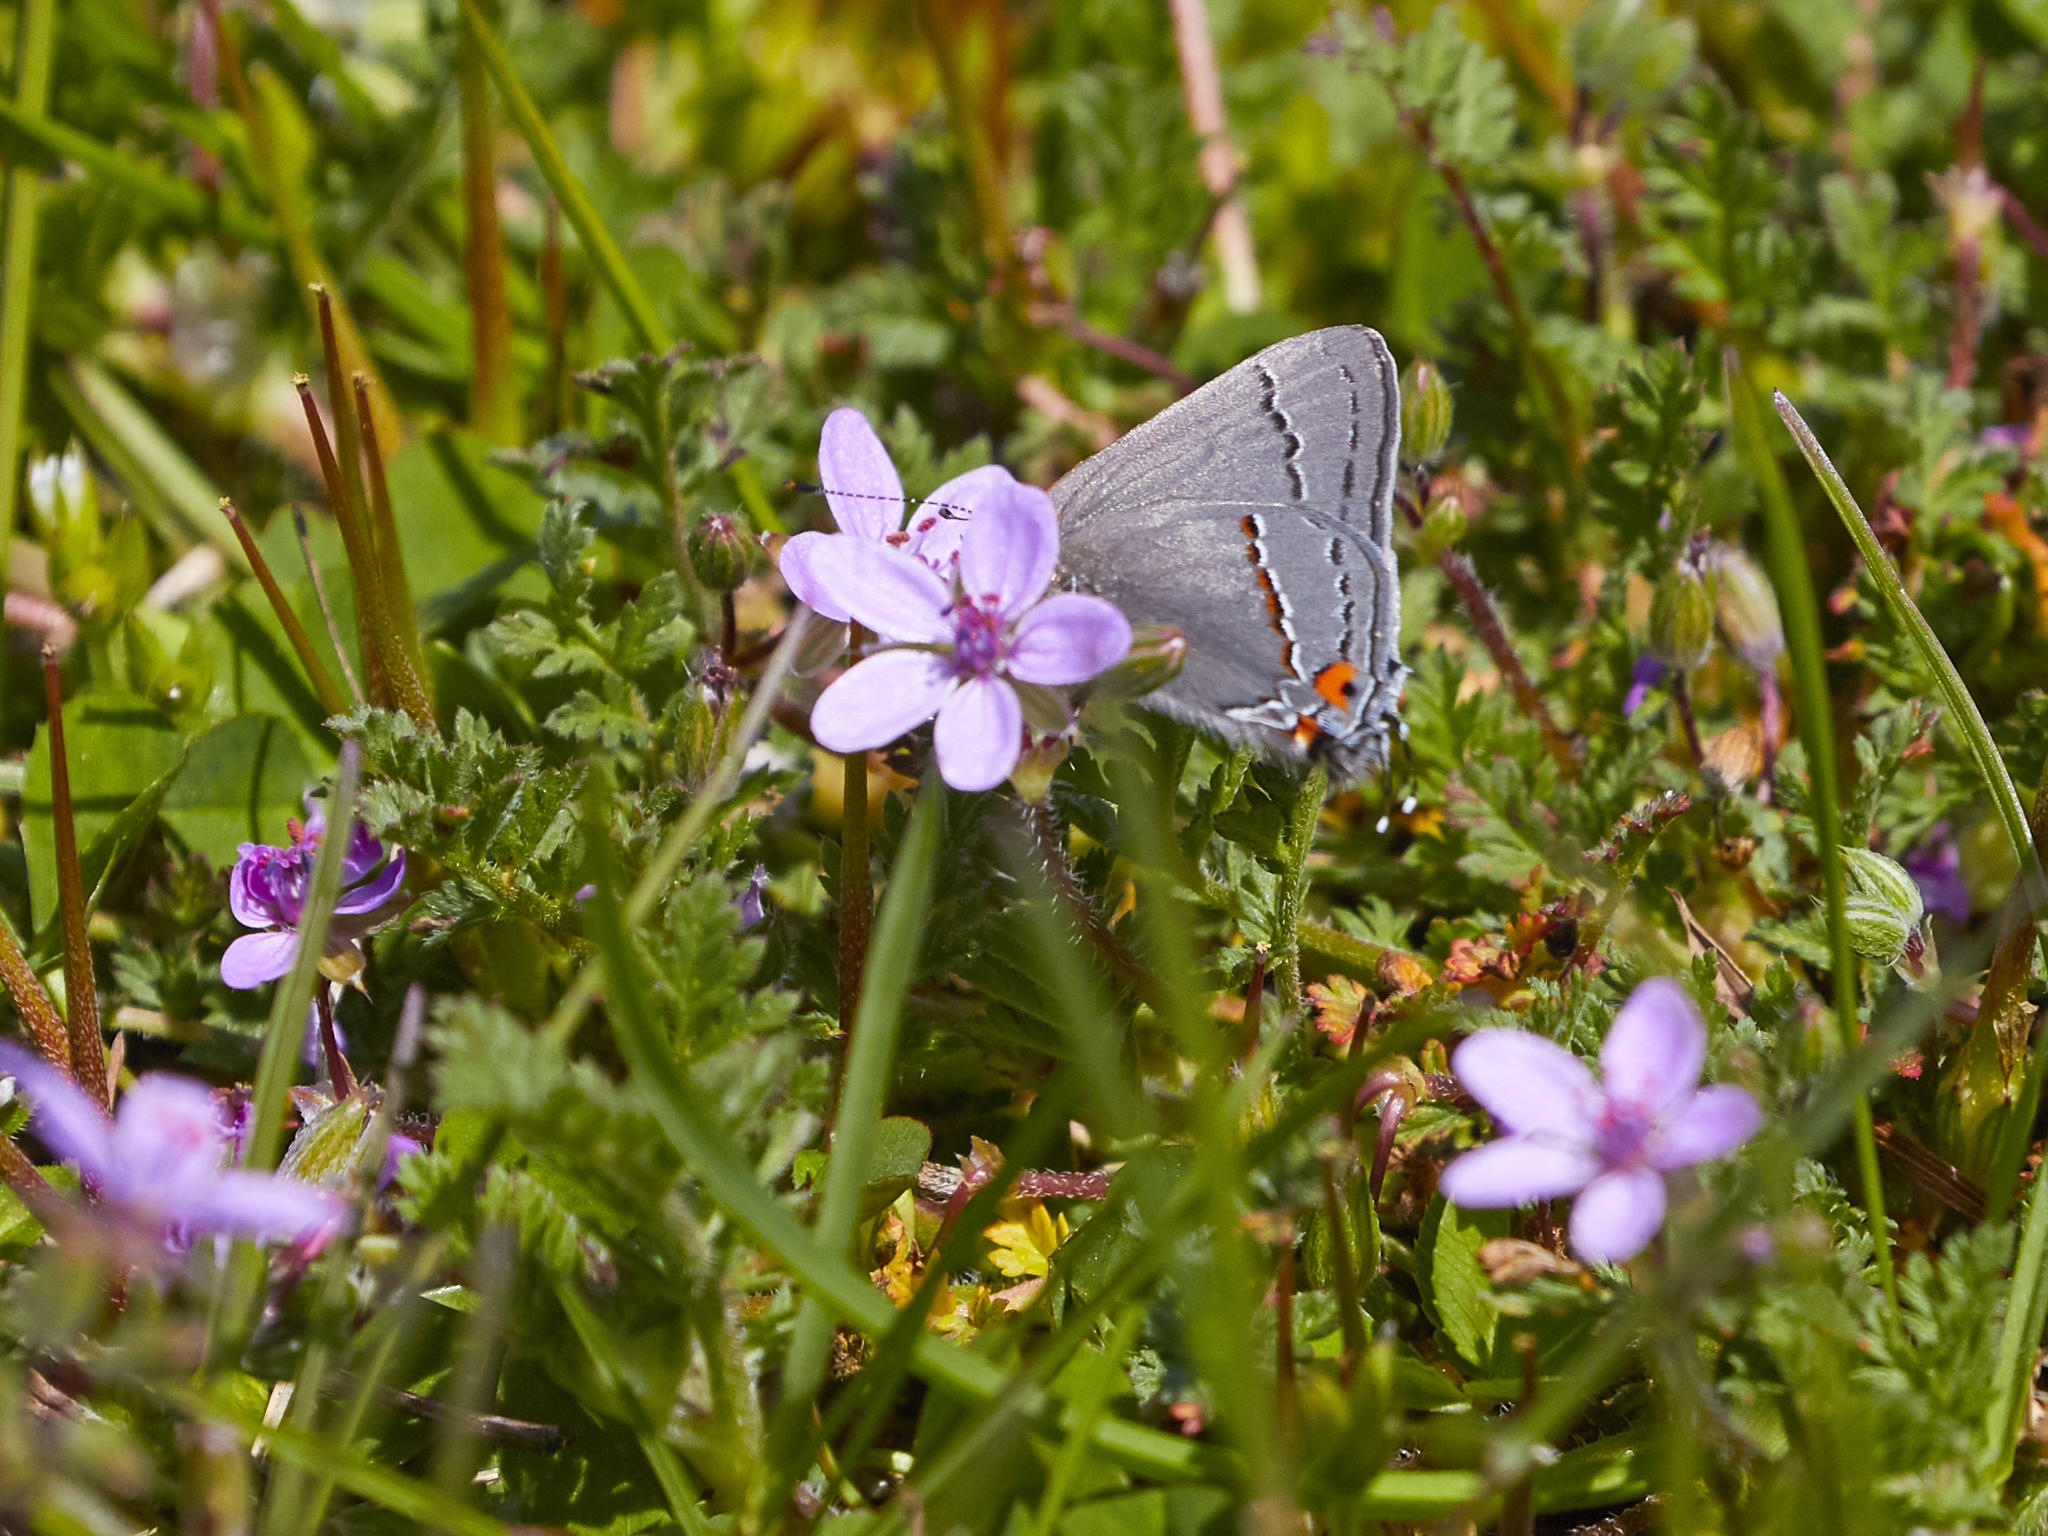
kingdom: Animalia
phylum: Arthropoda
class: Insecta
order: Lepidoptera
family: Lycaenidae
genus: Strymon
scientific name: Strymon melinus
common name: Gray hairstreak
